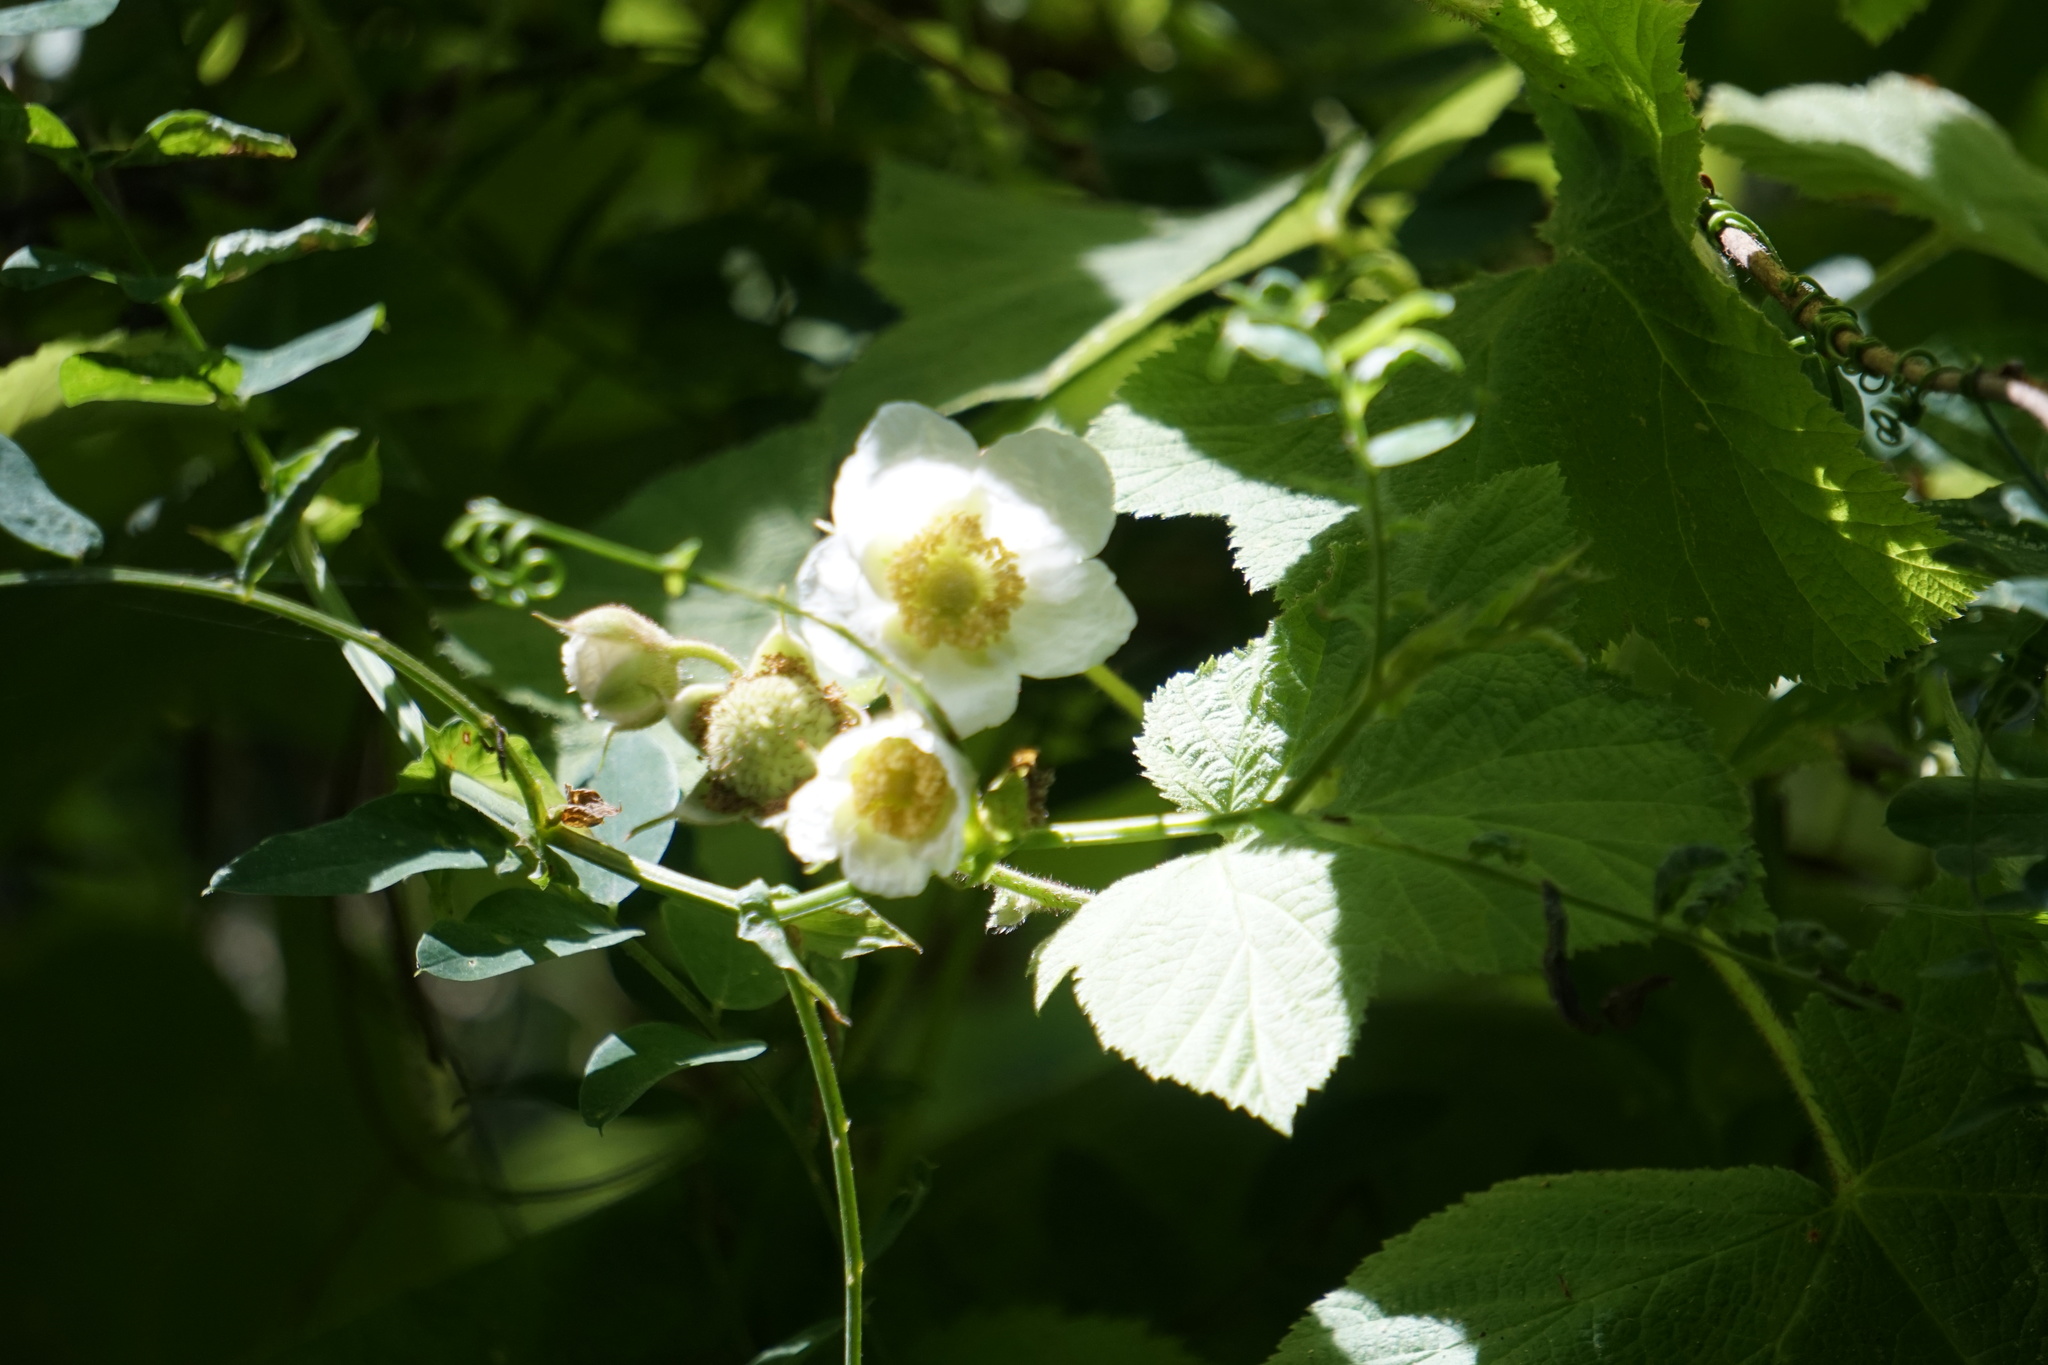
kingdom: Plantae
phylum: Tracheophyta
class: Magnoliopsida
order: Rosales
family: Rosaceae
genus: Rubus
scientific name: Rubus parviflorus
